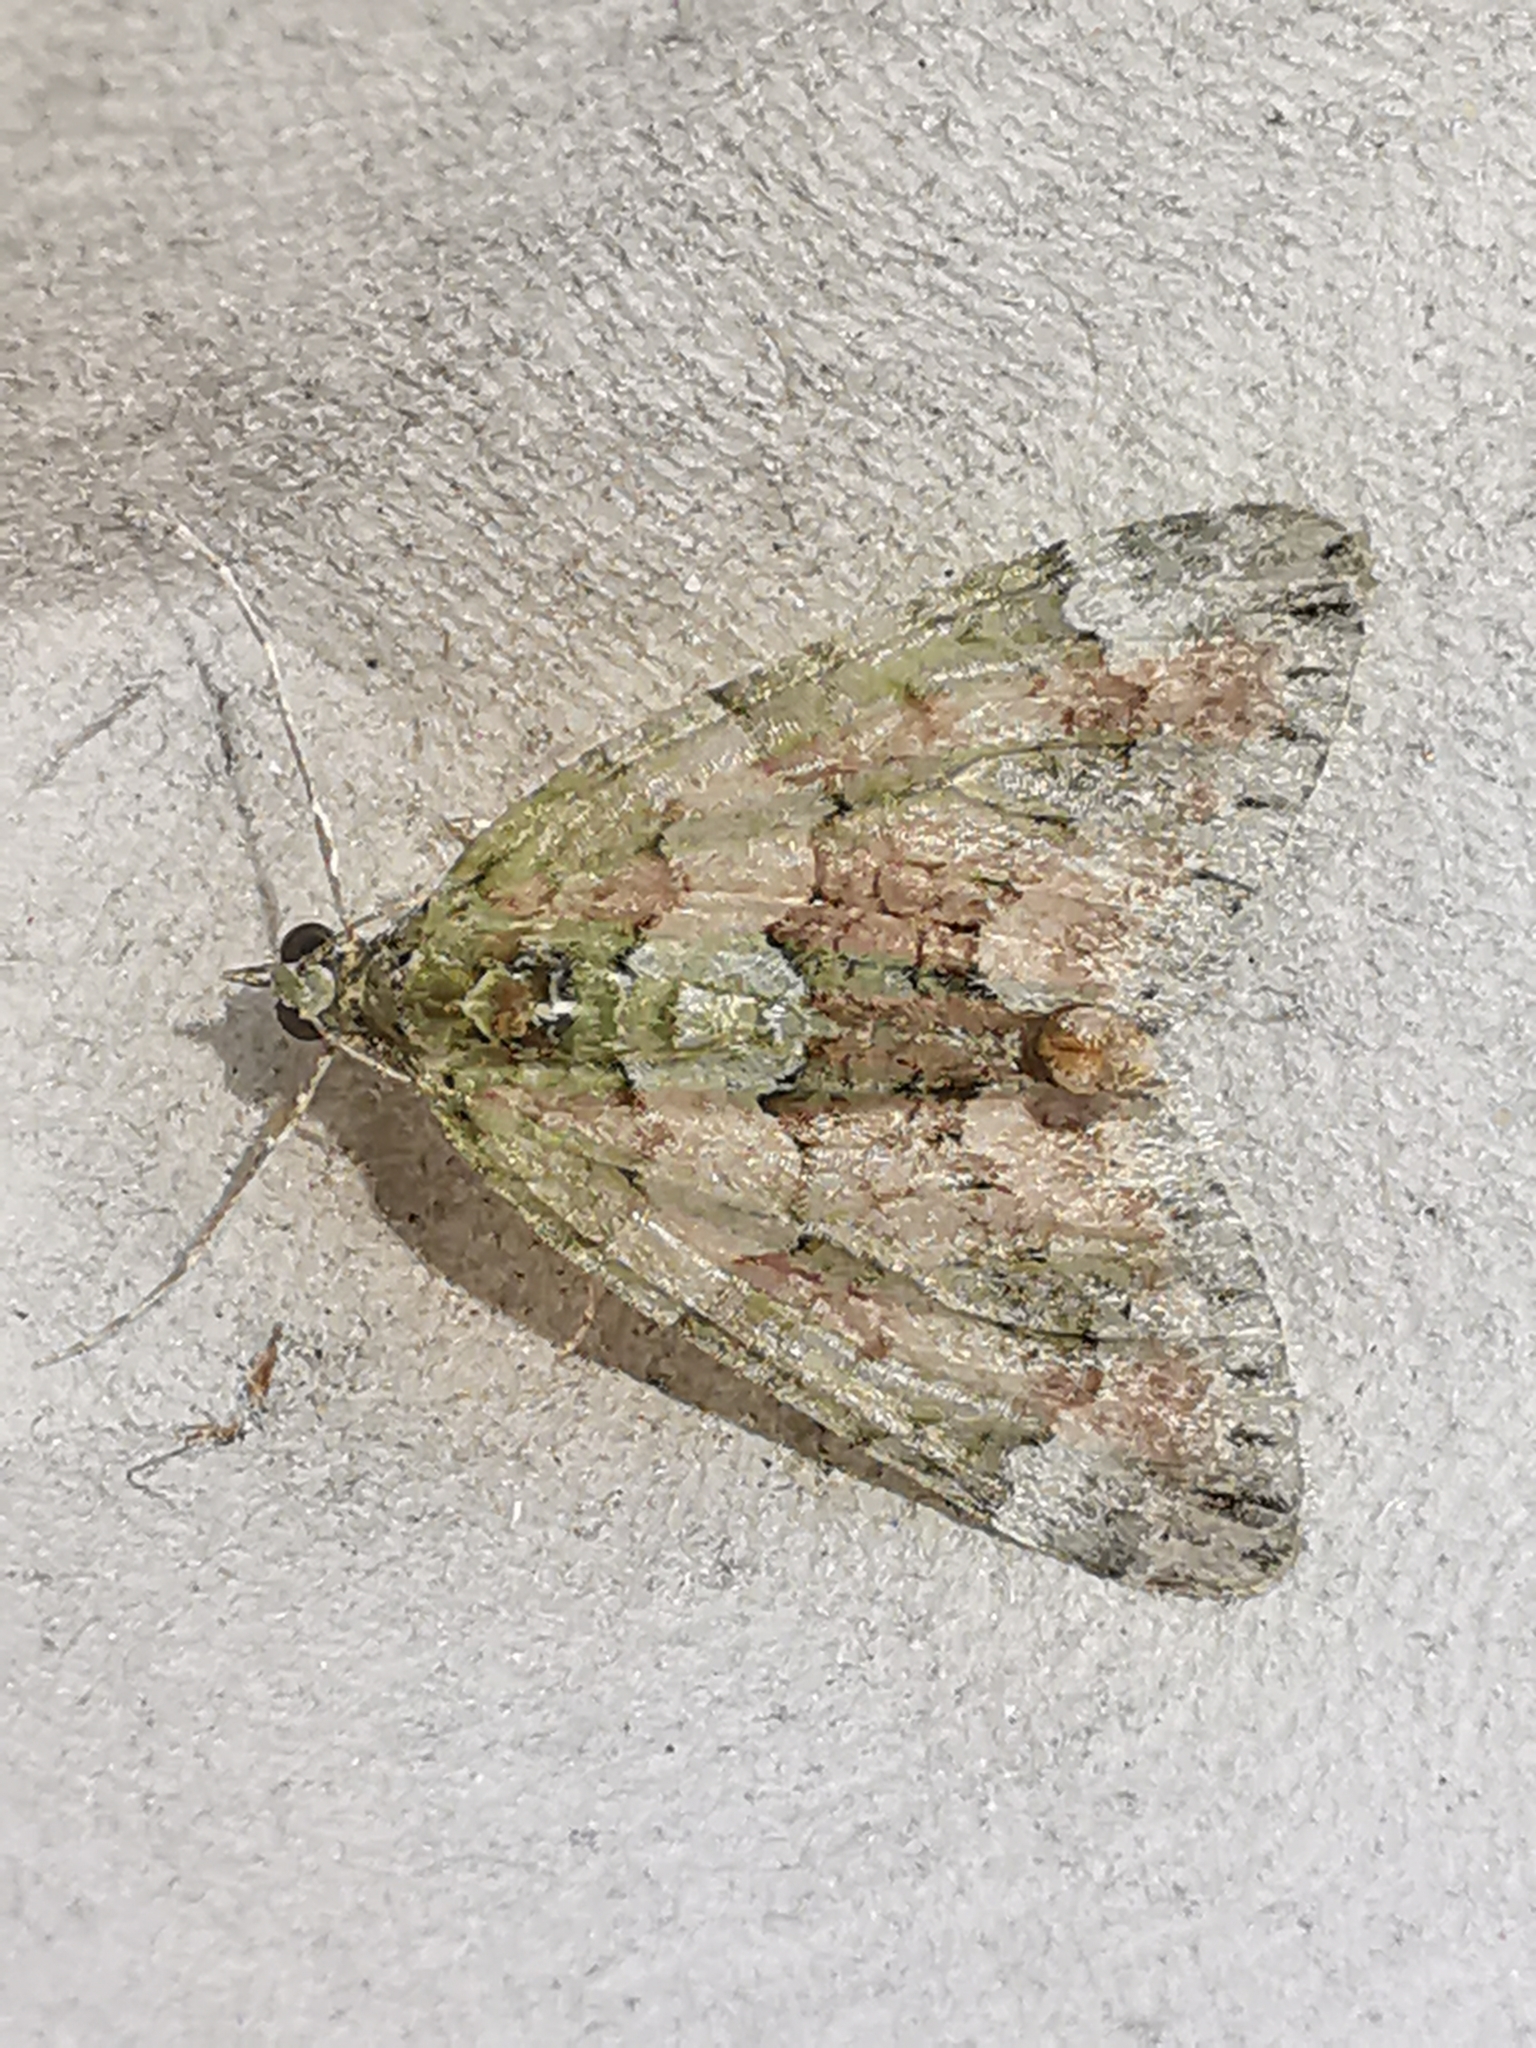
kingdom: Animalia
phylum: Arthropoda
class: Insecta
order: Lepidoptera
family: Geometridae
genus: Chloroclysta
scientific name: Chloroclysta siterata
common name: Red-green carpet
